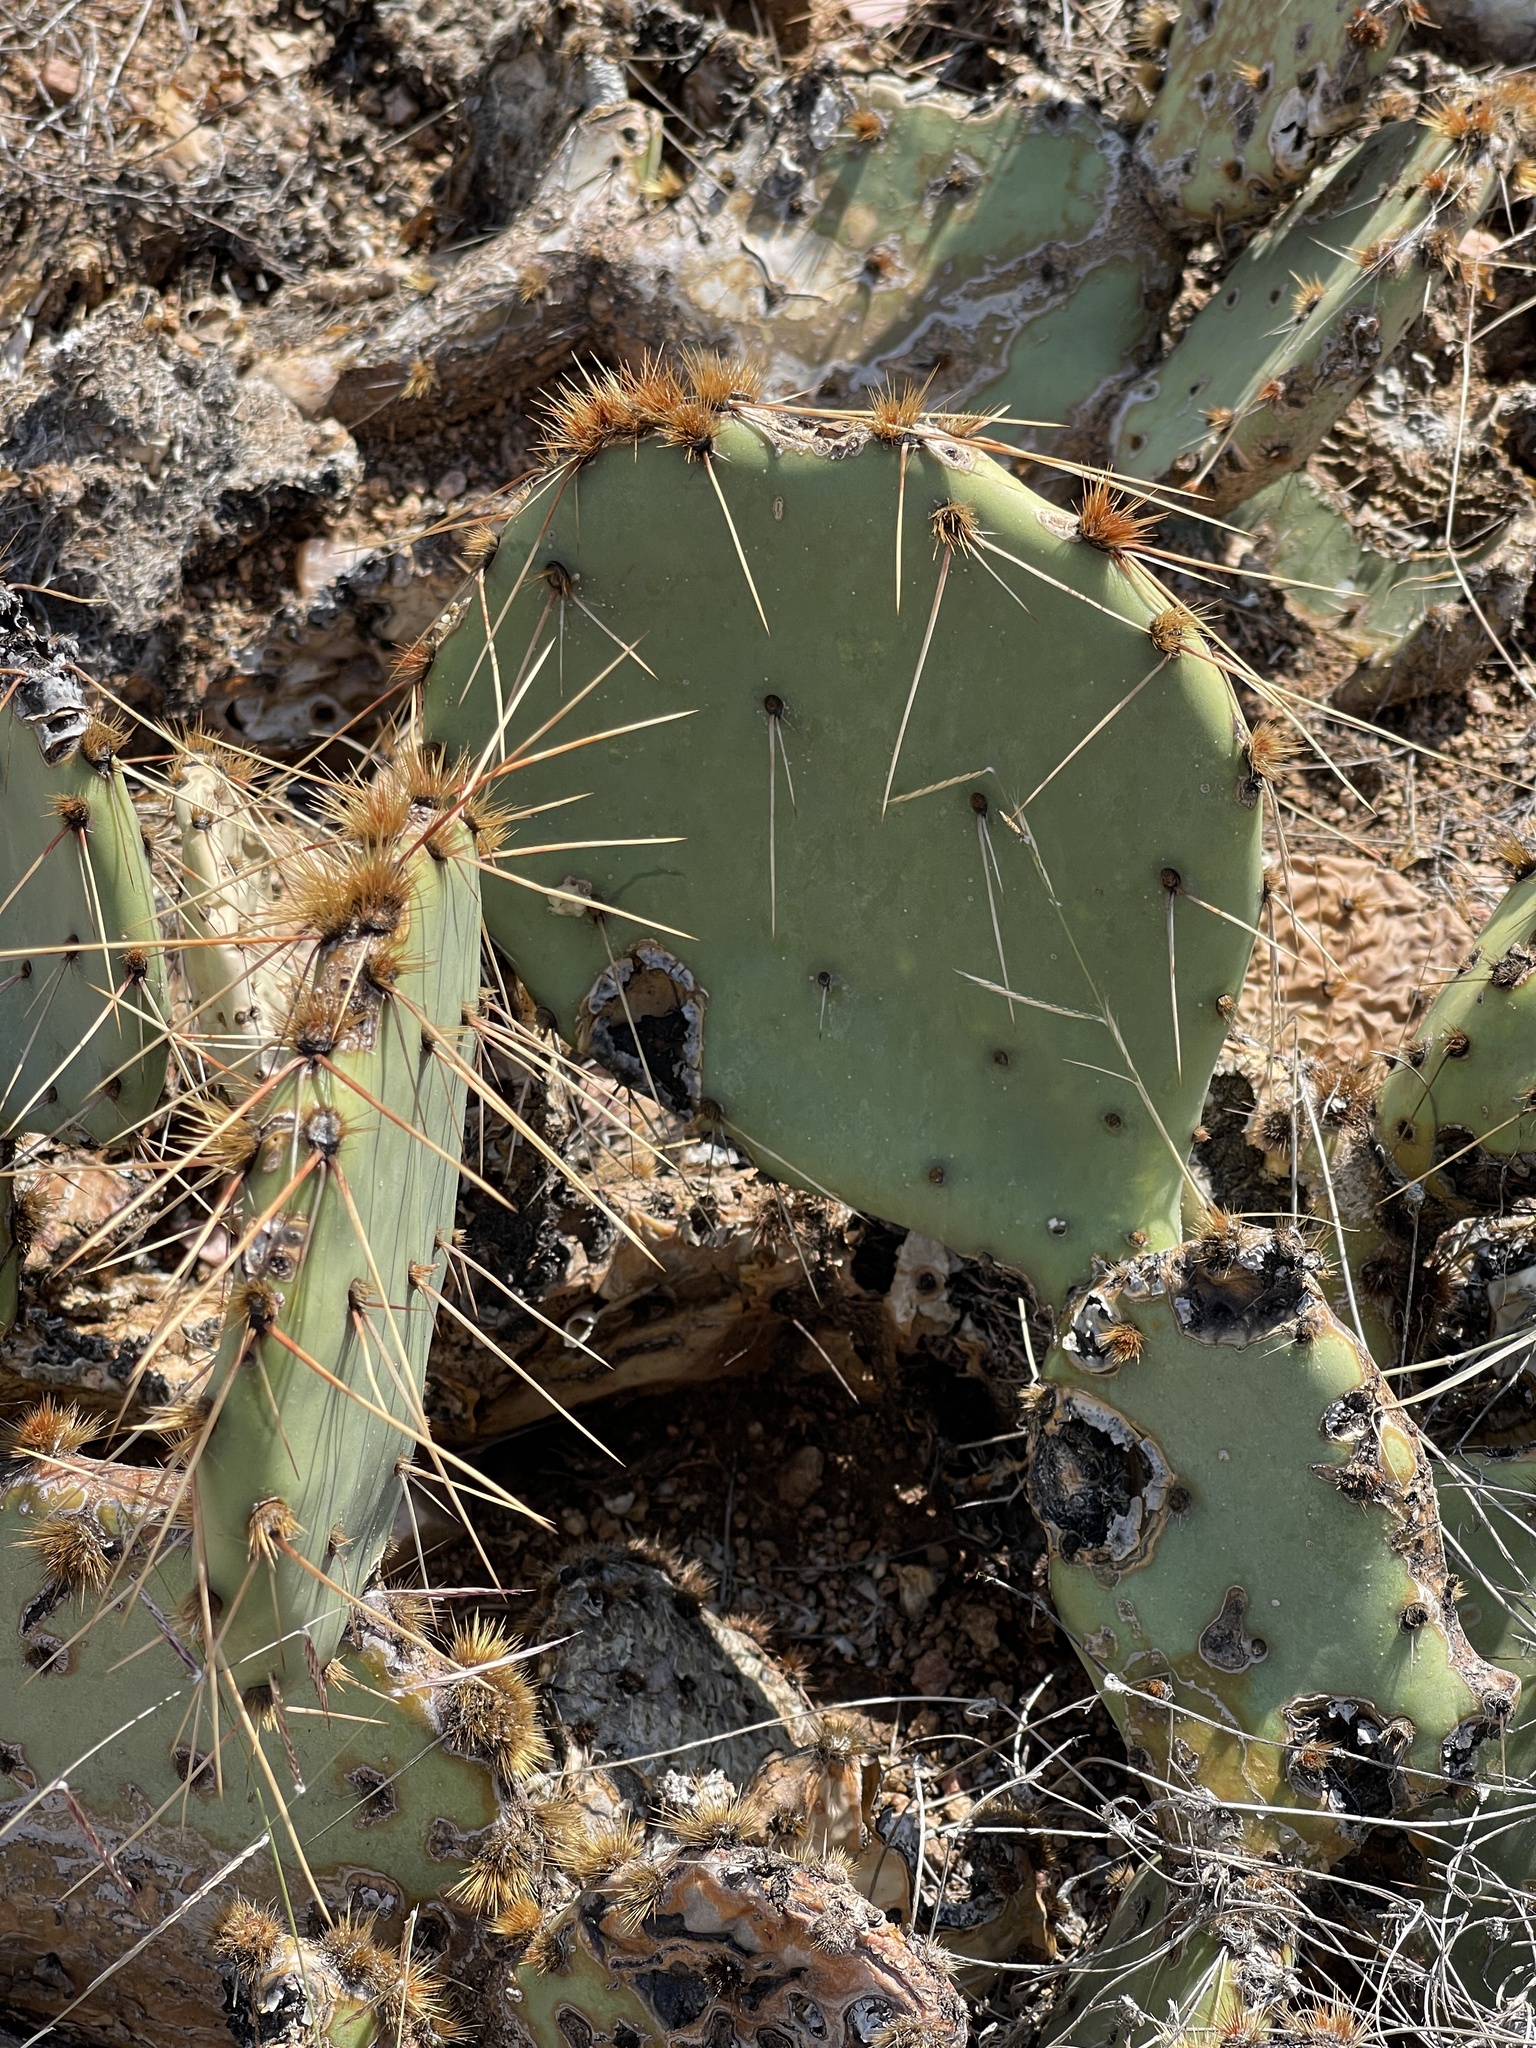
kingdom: Plantae
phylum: Tracheophyta
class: Magnoliopsida
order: Caryophyllales
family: Cactaceae
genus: Opuntia
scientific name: Opuntia phaeacantha
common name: New mexico prickly-pear
